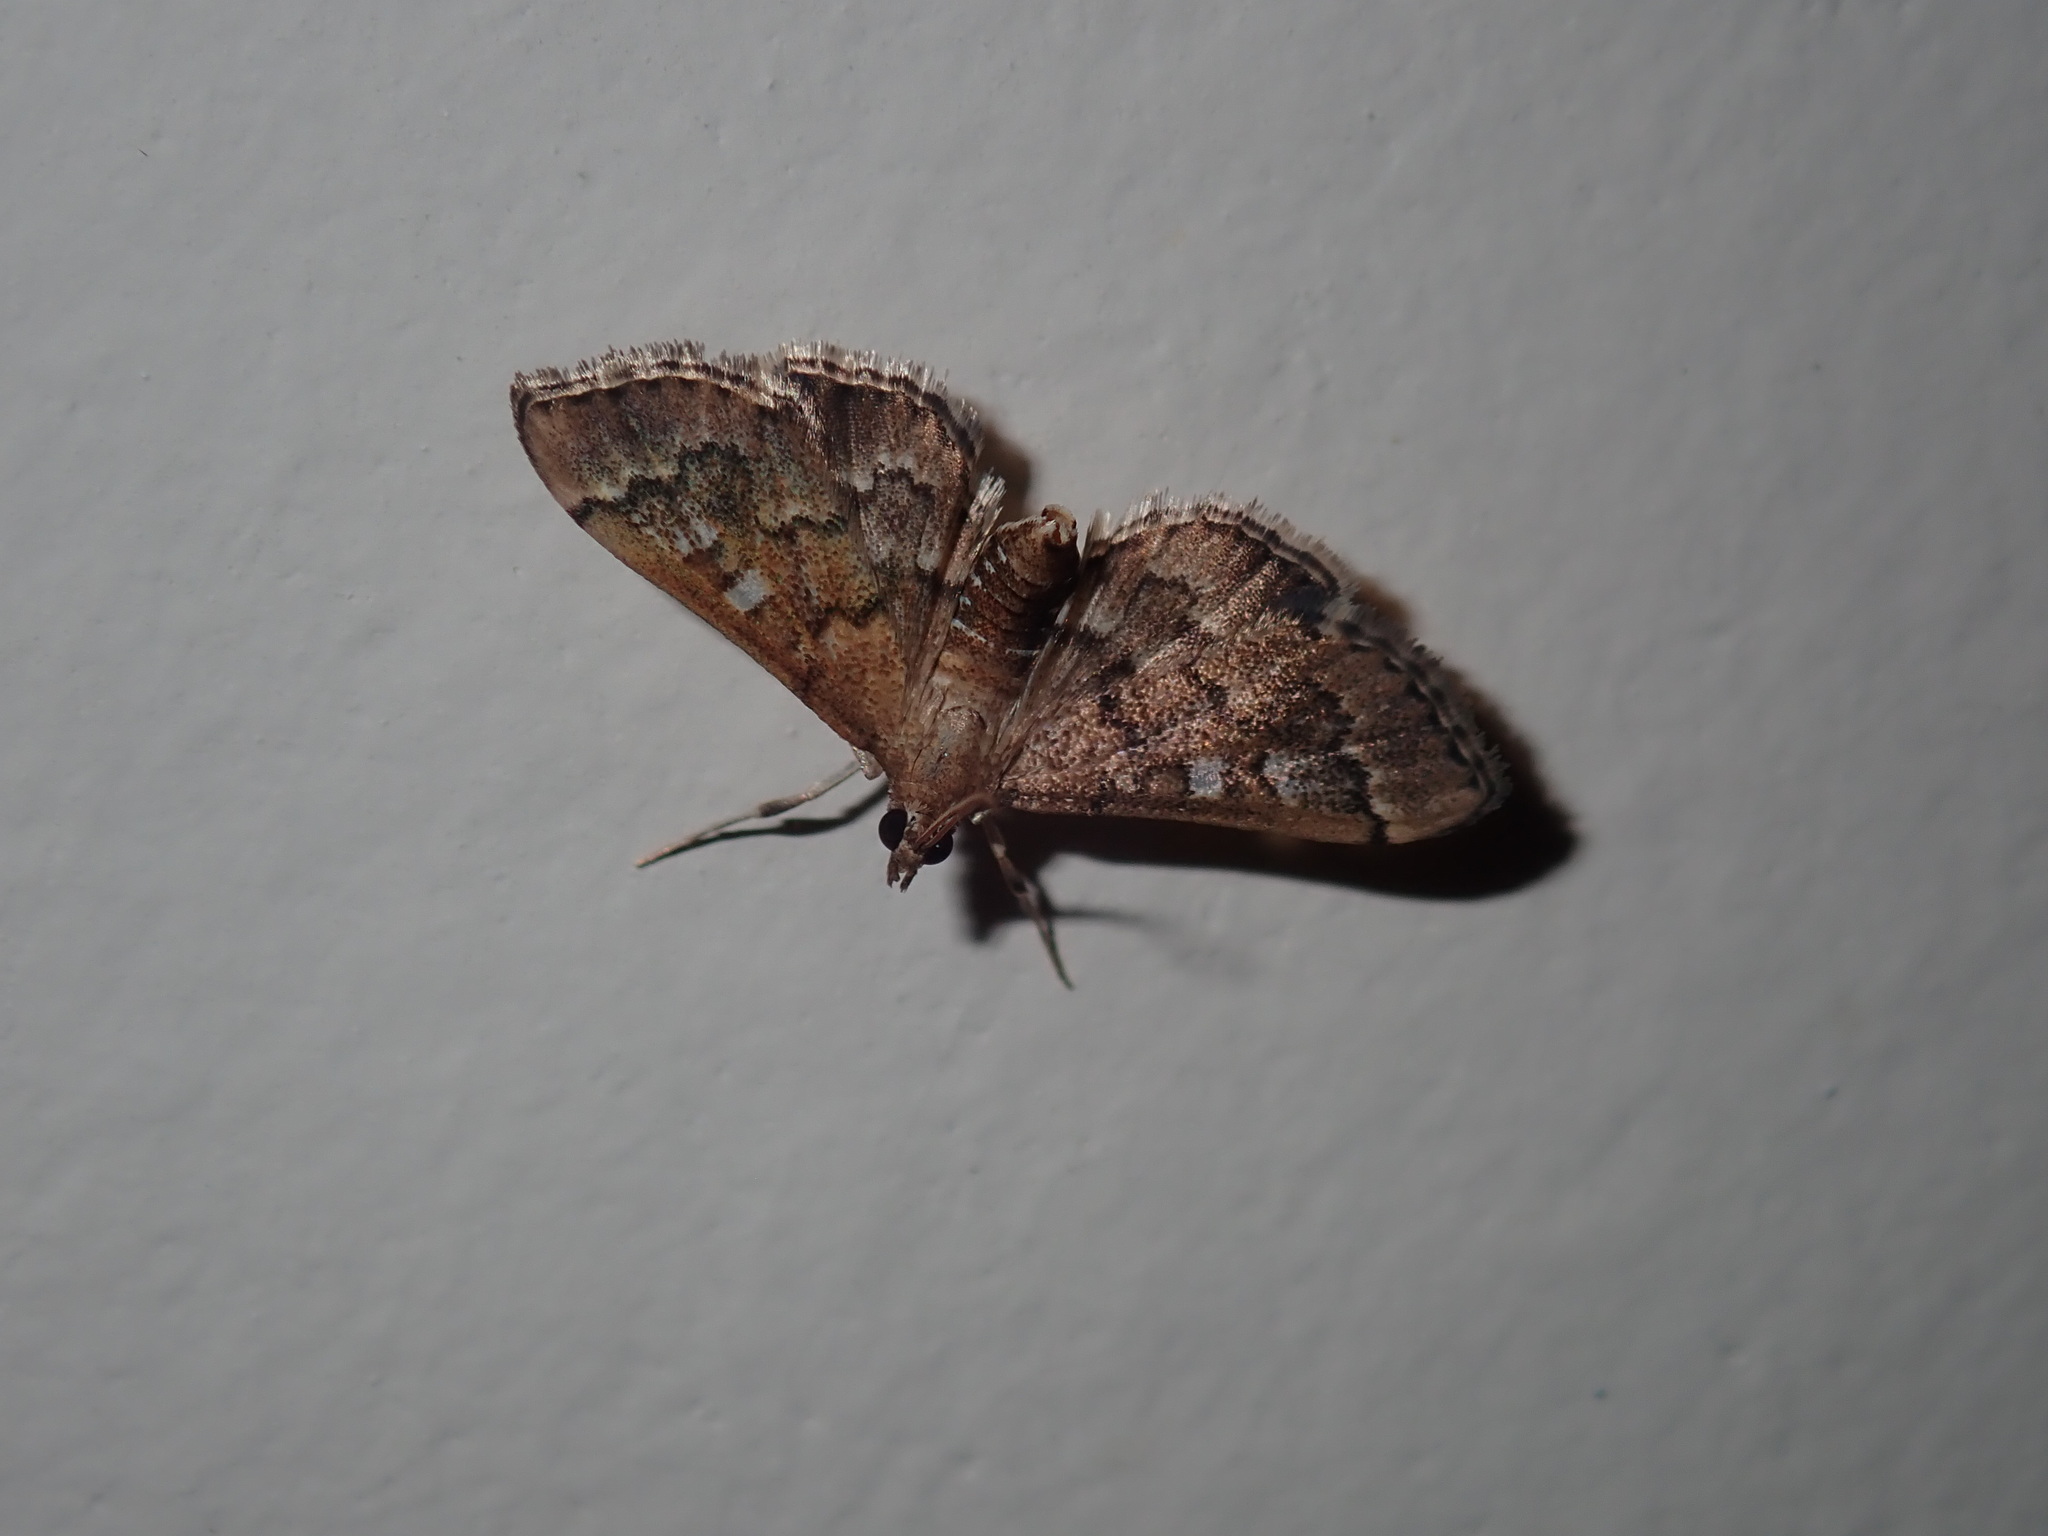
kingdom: Animalia
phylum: Arthropoda
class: Insecta
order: Lepidoptera
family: Crambidae
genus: Nacoleia
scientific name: Nacoleia rhoeoalis
